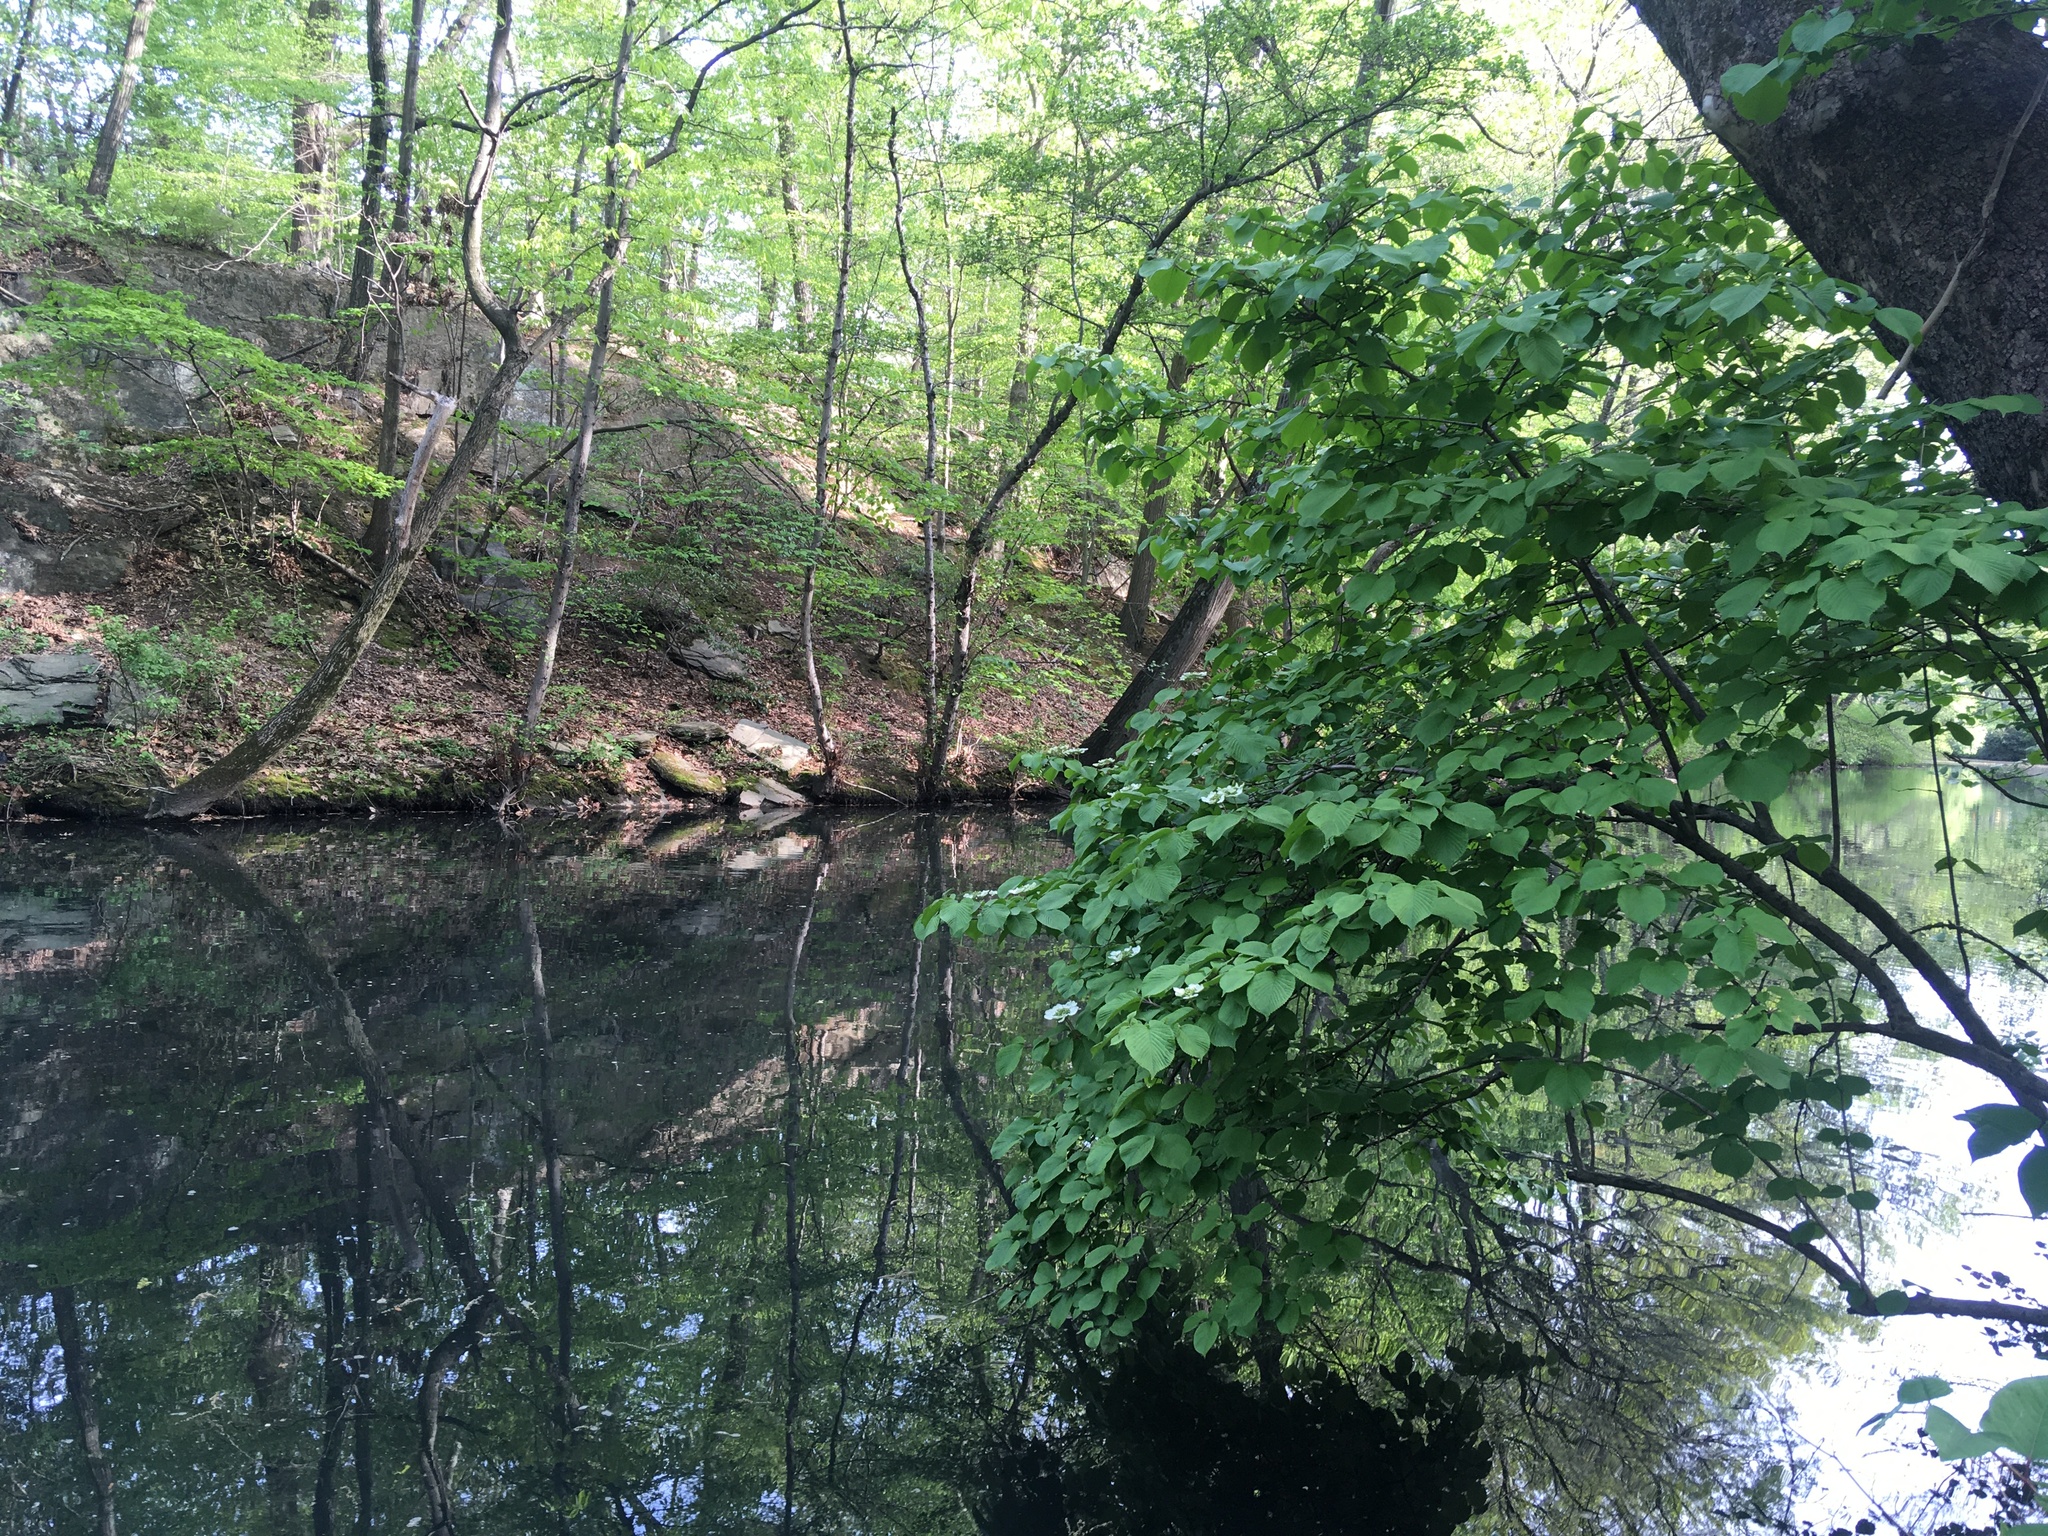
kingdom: Plantae
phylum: Tracheophyta
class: Magnoliopsida
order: Dipsacales
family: Viburnaceae
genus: Viburnum
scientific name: Viburnum plicatum
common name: Japanese snowball
